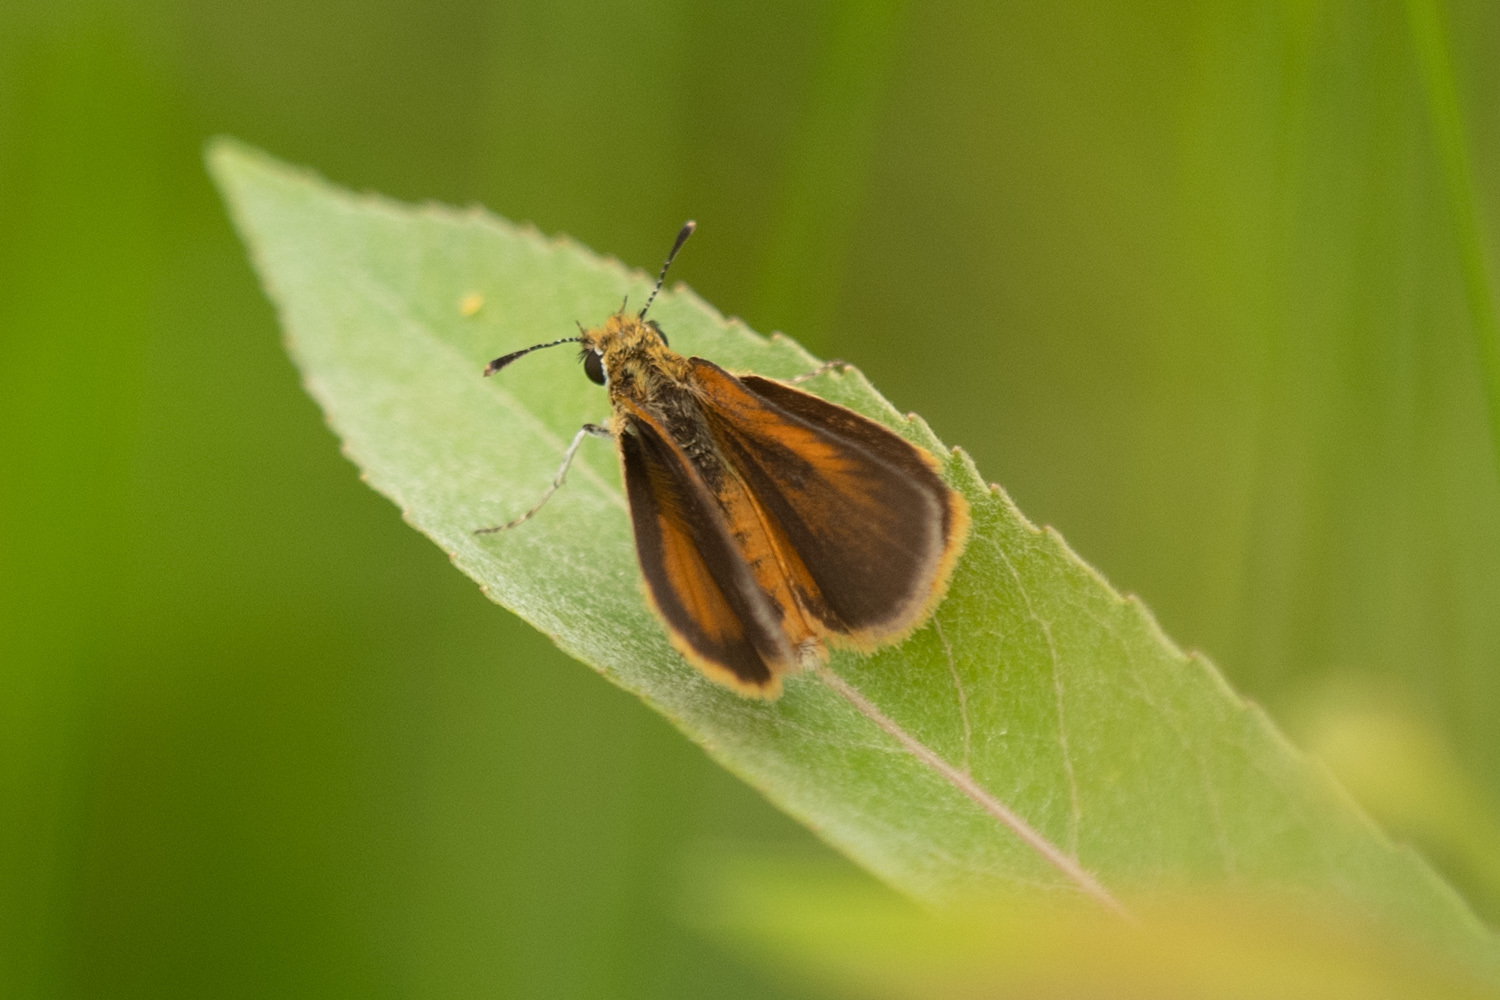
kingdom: Animalia
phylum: Arthropoda
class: Insecta
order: Lepidoptera
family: Hesperiidae
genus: Ancyloxypha
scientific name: Ancyloxypha numitor
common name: Least skipper
